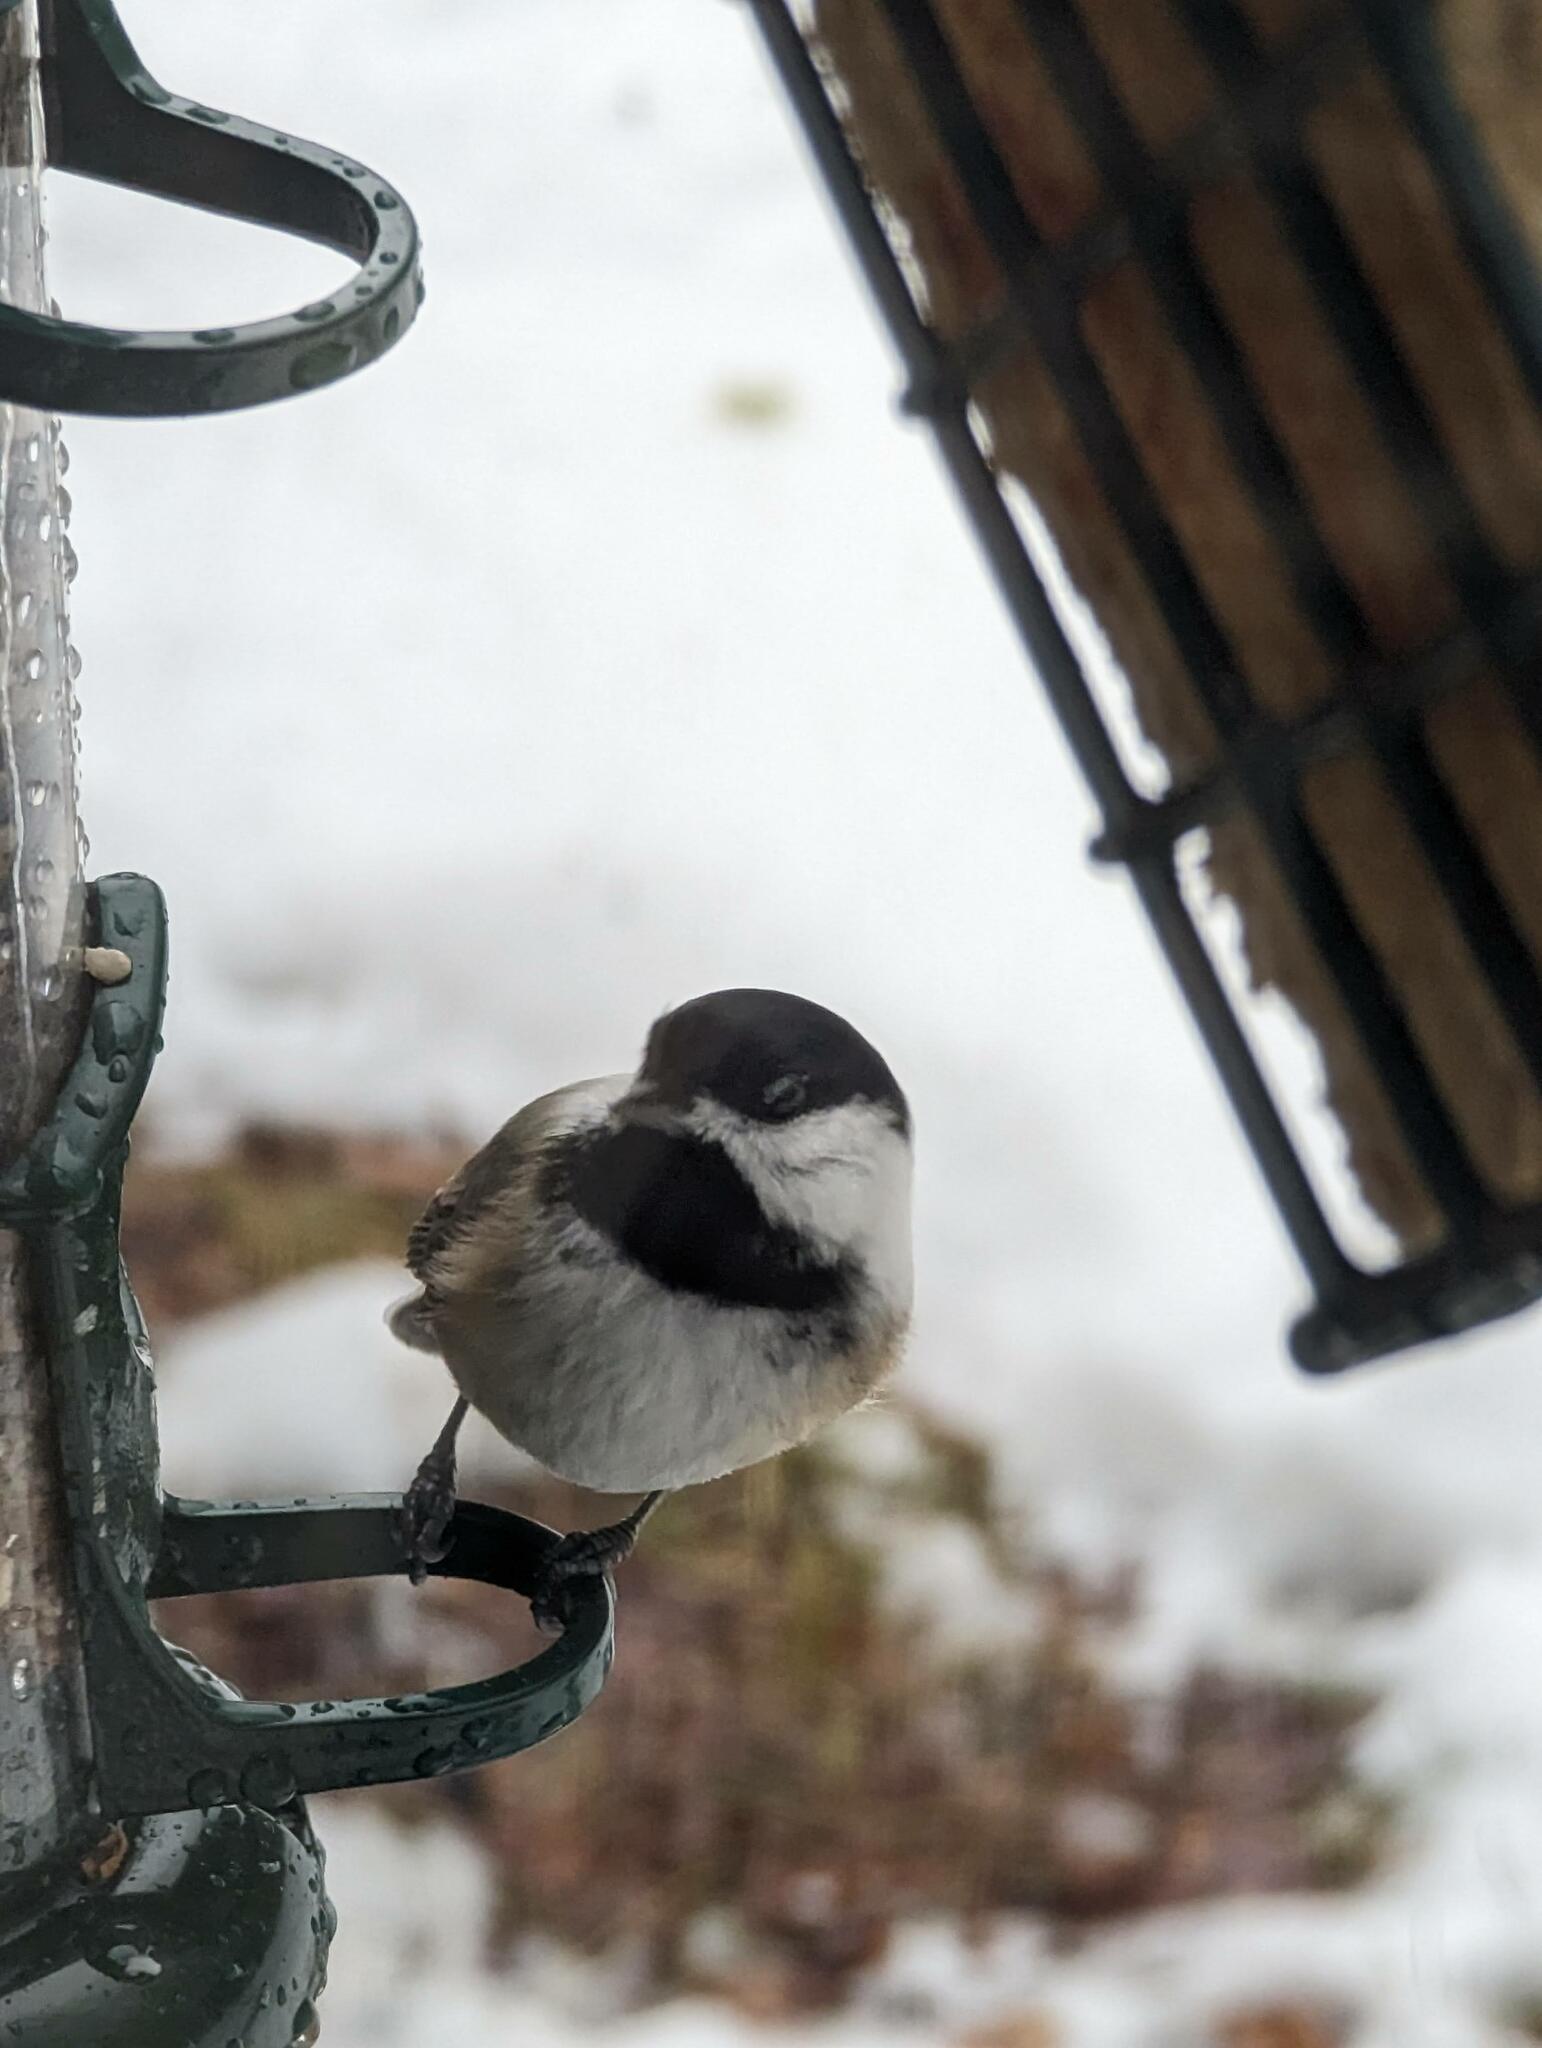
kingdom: Animalia
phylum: Chordata
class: Aves
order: Passeriformes
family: Paridae
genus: Poecile
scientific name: Poecile atricapillus
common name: Black-capped chickadee
